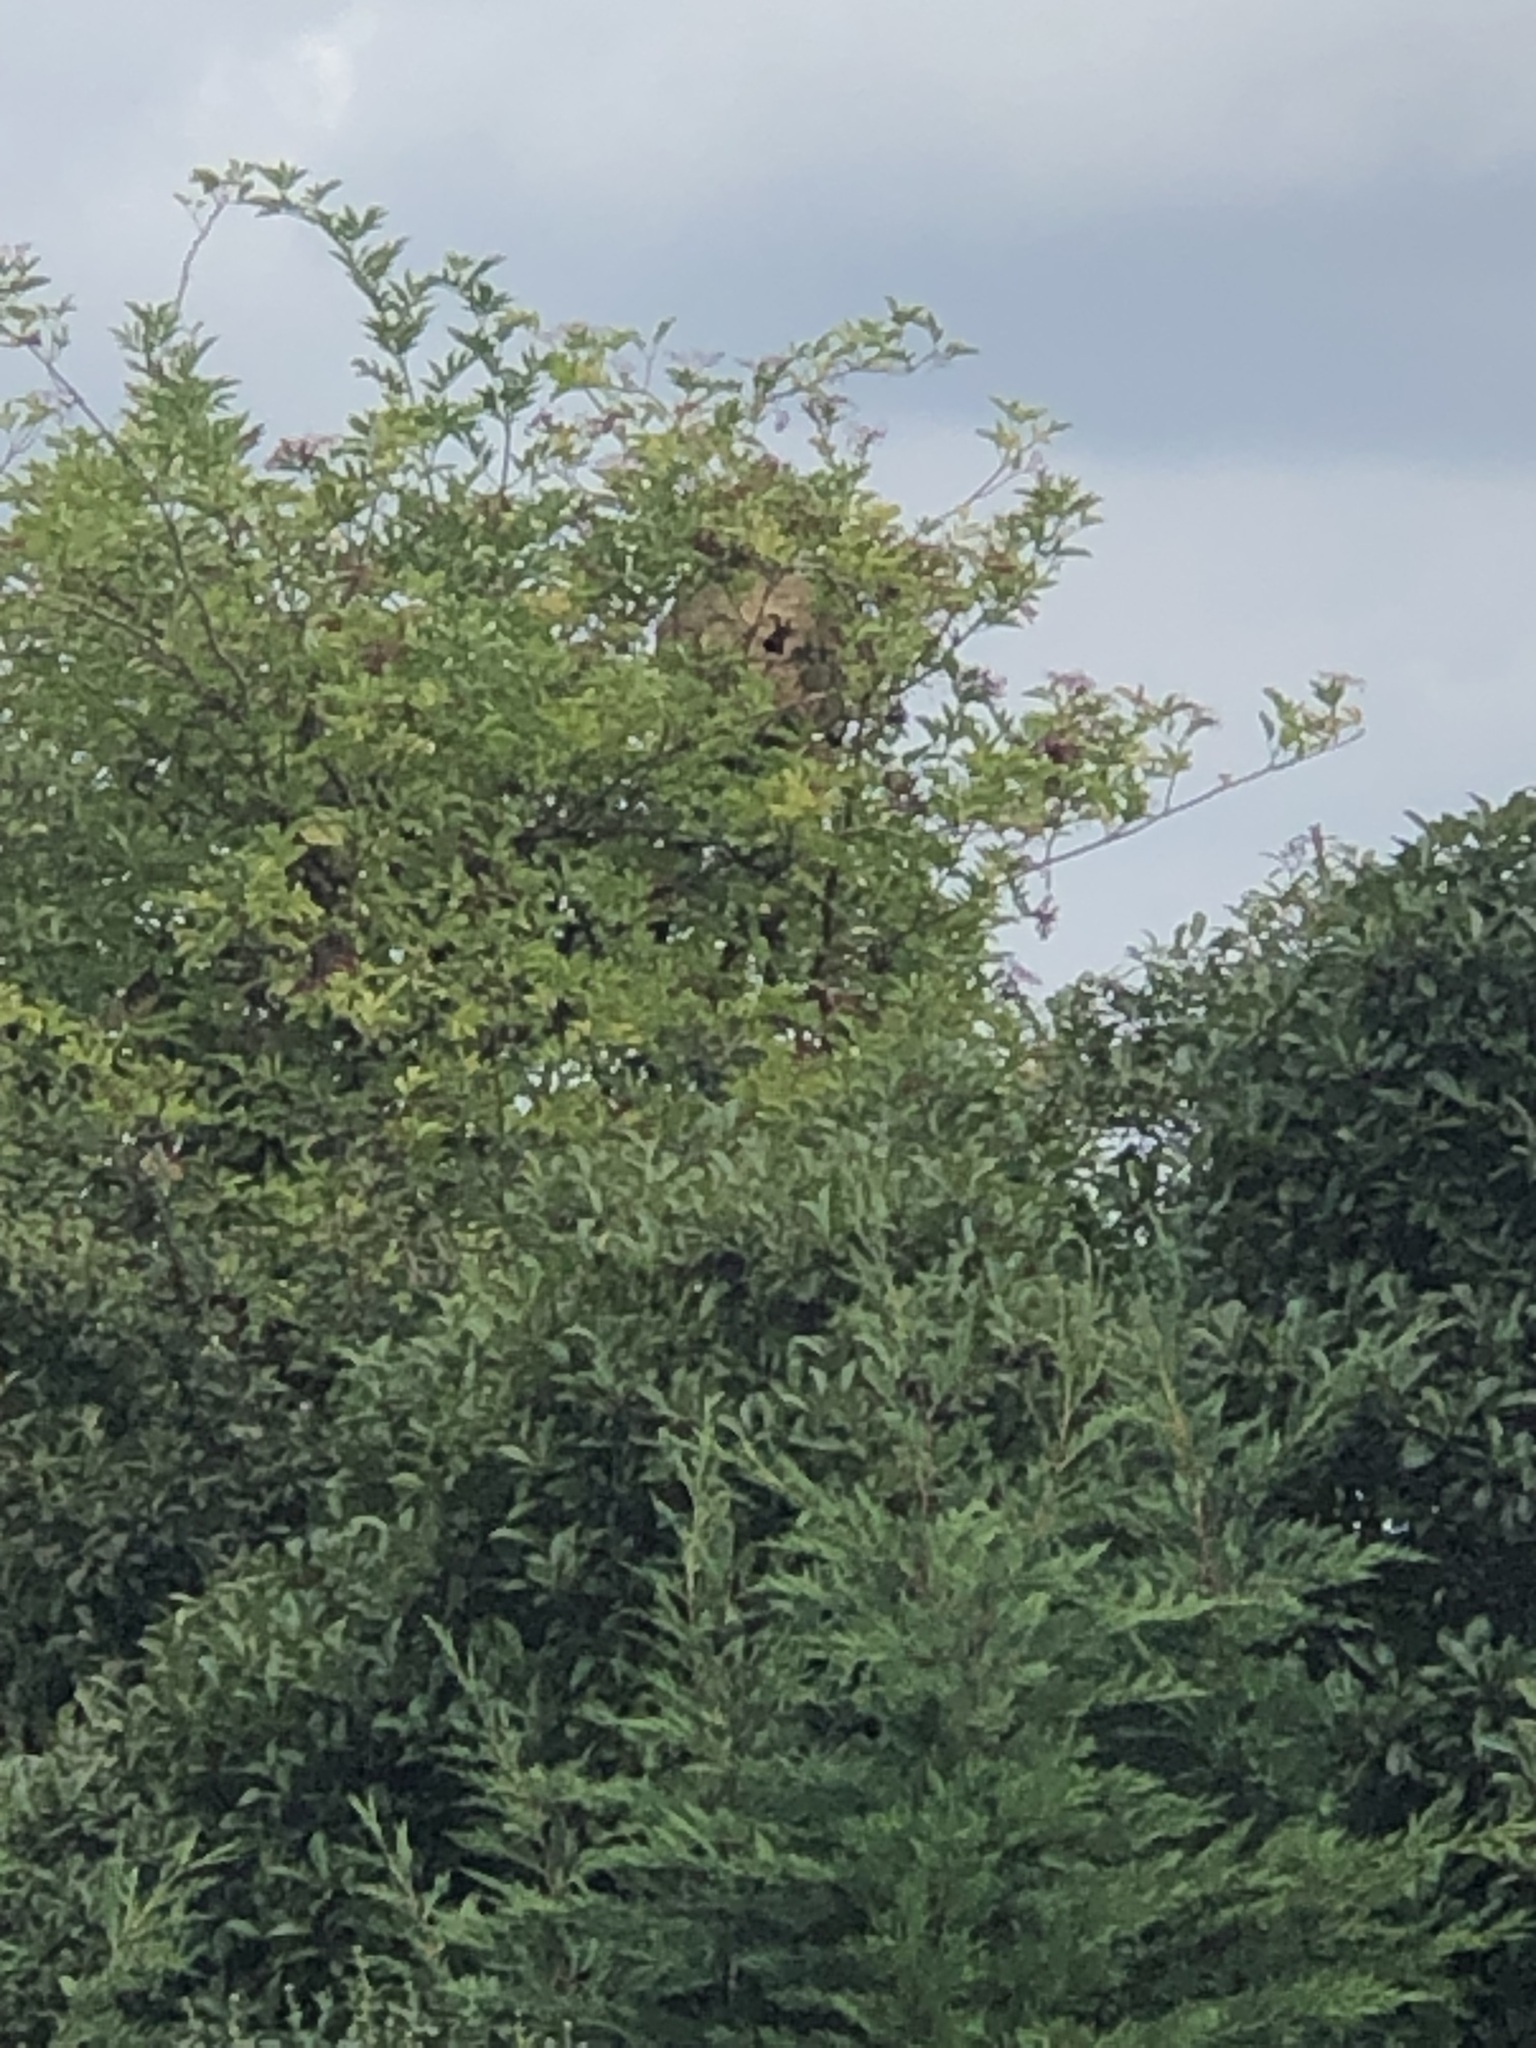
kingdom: Animalia
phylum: Arthropoda
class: Insecta
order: Hymenoptera
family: Vespidae
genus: Vespa
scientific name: Vespa velutina
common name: Asian hornet
